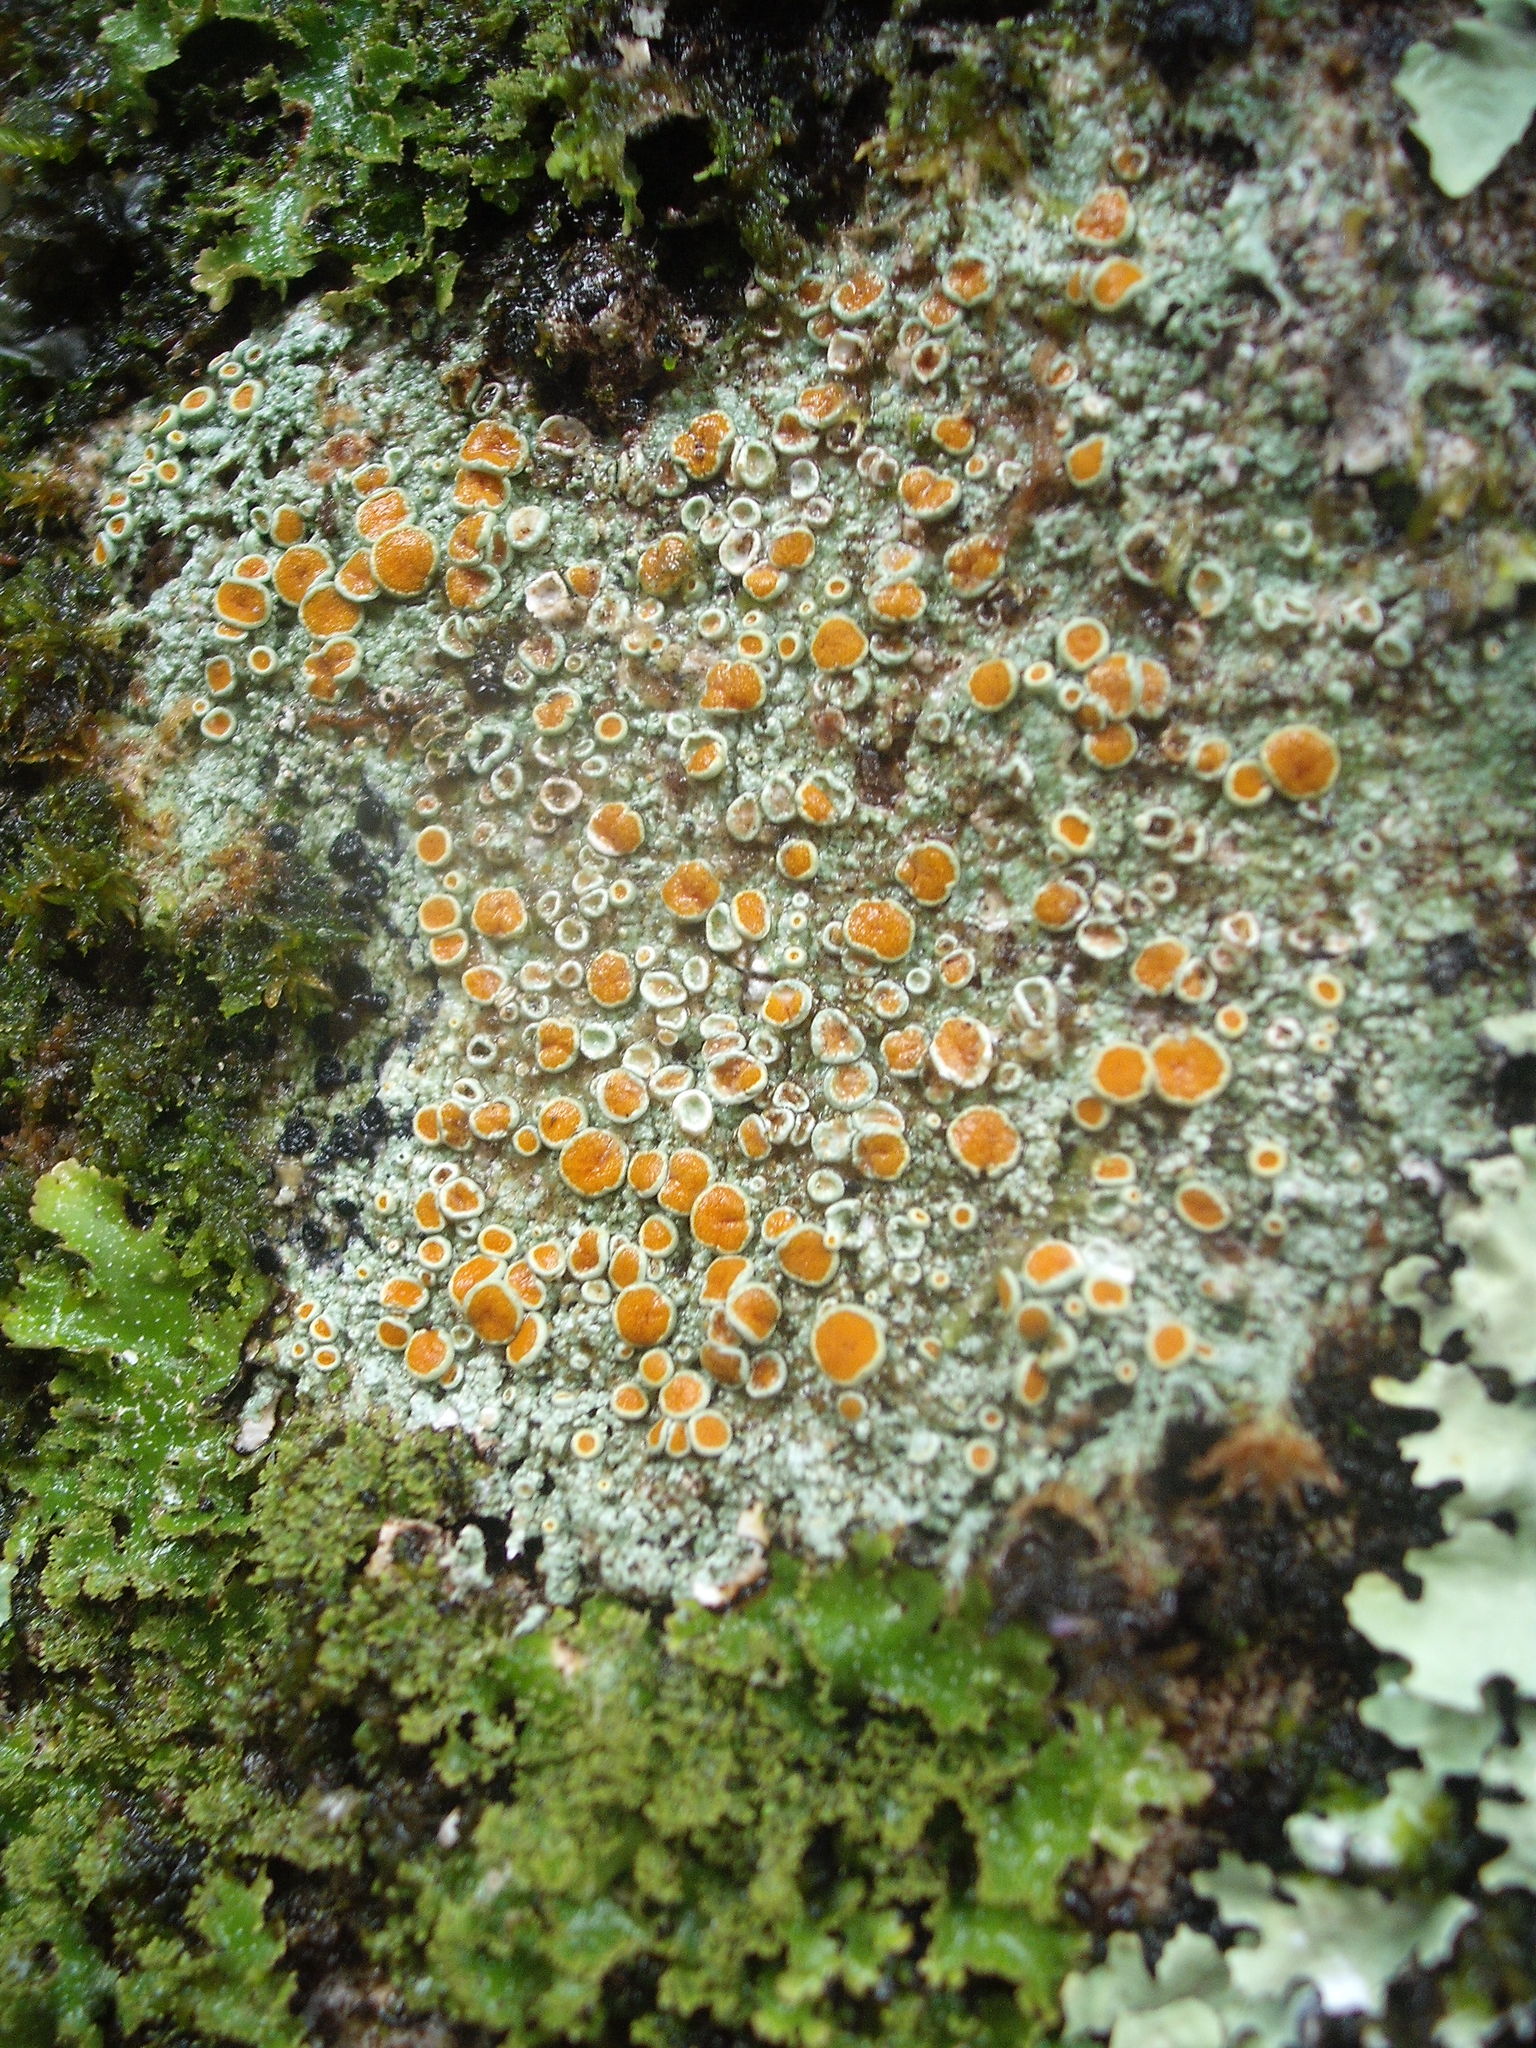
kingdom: Fungi
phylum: Ascomycota
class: Lecanoromycetes
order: Teloschistales
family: Brigantiaeaceae
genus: Brigantiaea
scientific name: Brigantiaea chrysosticta
